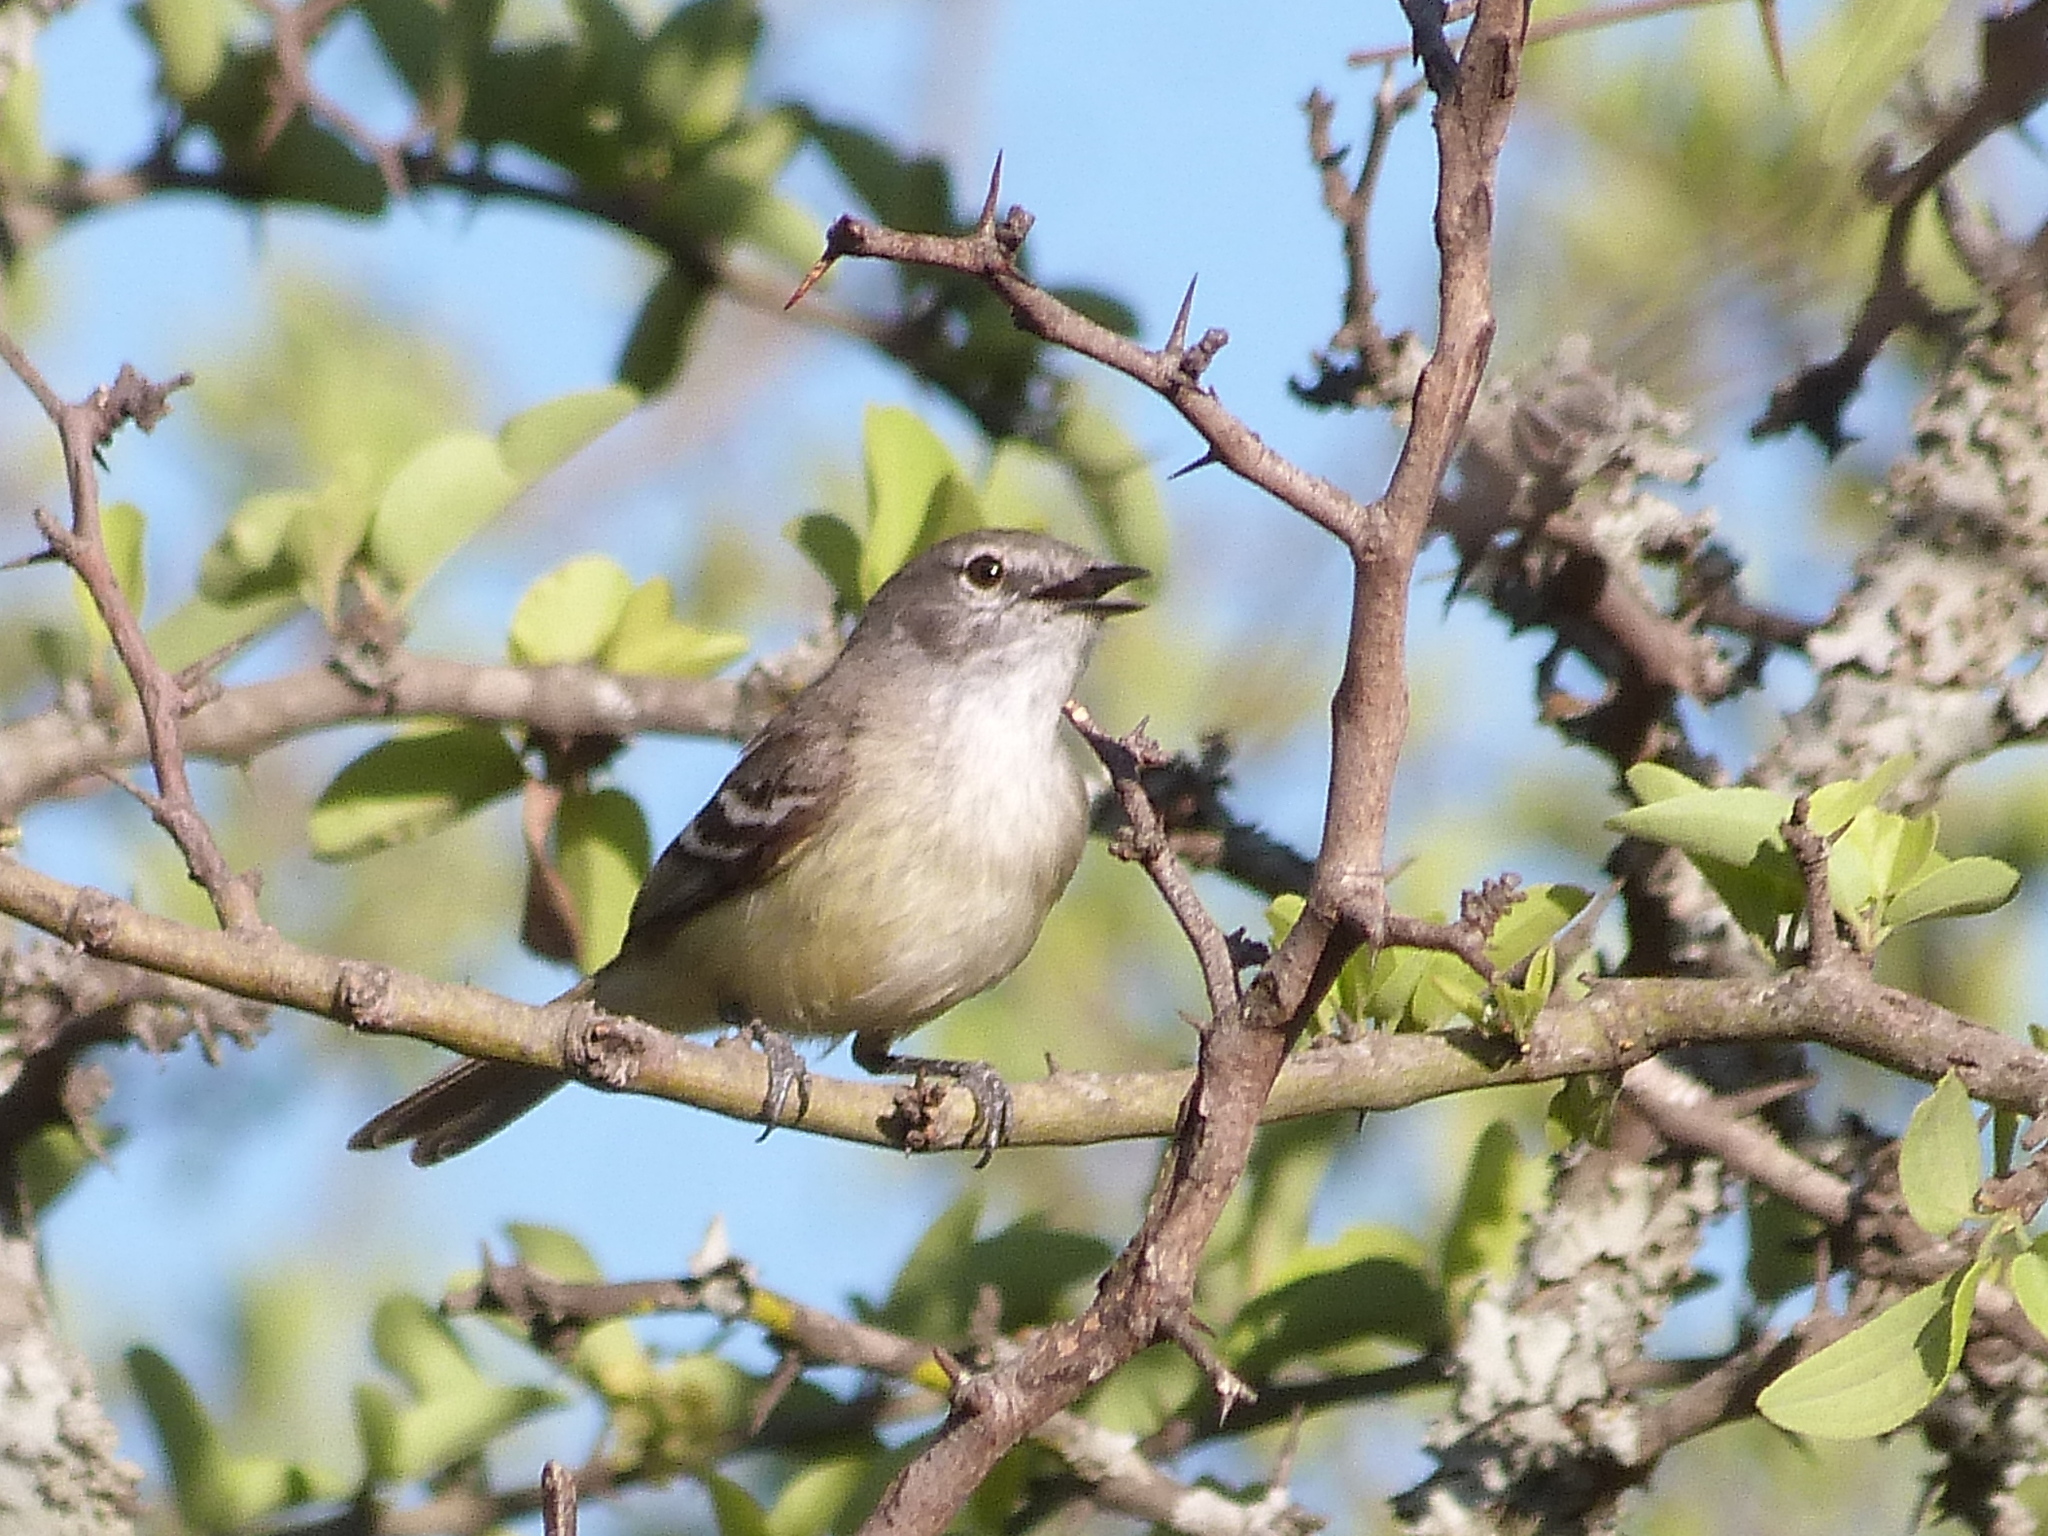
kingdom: Animalia
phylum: Chordata
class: Aves
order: Passeriformes
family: Tyrannidae
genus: Inezia
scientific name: Inezia inornata
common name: Plain inezia
